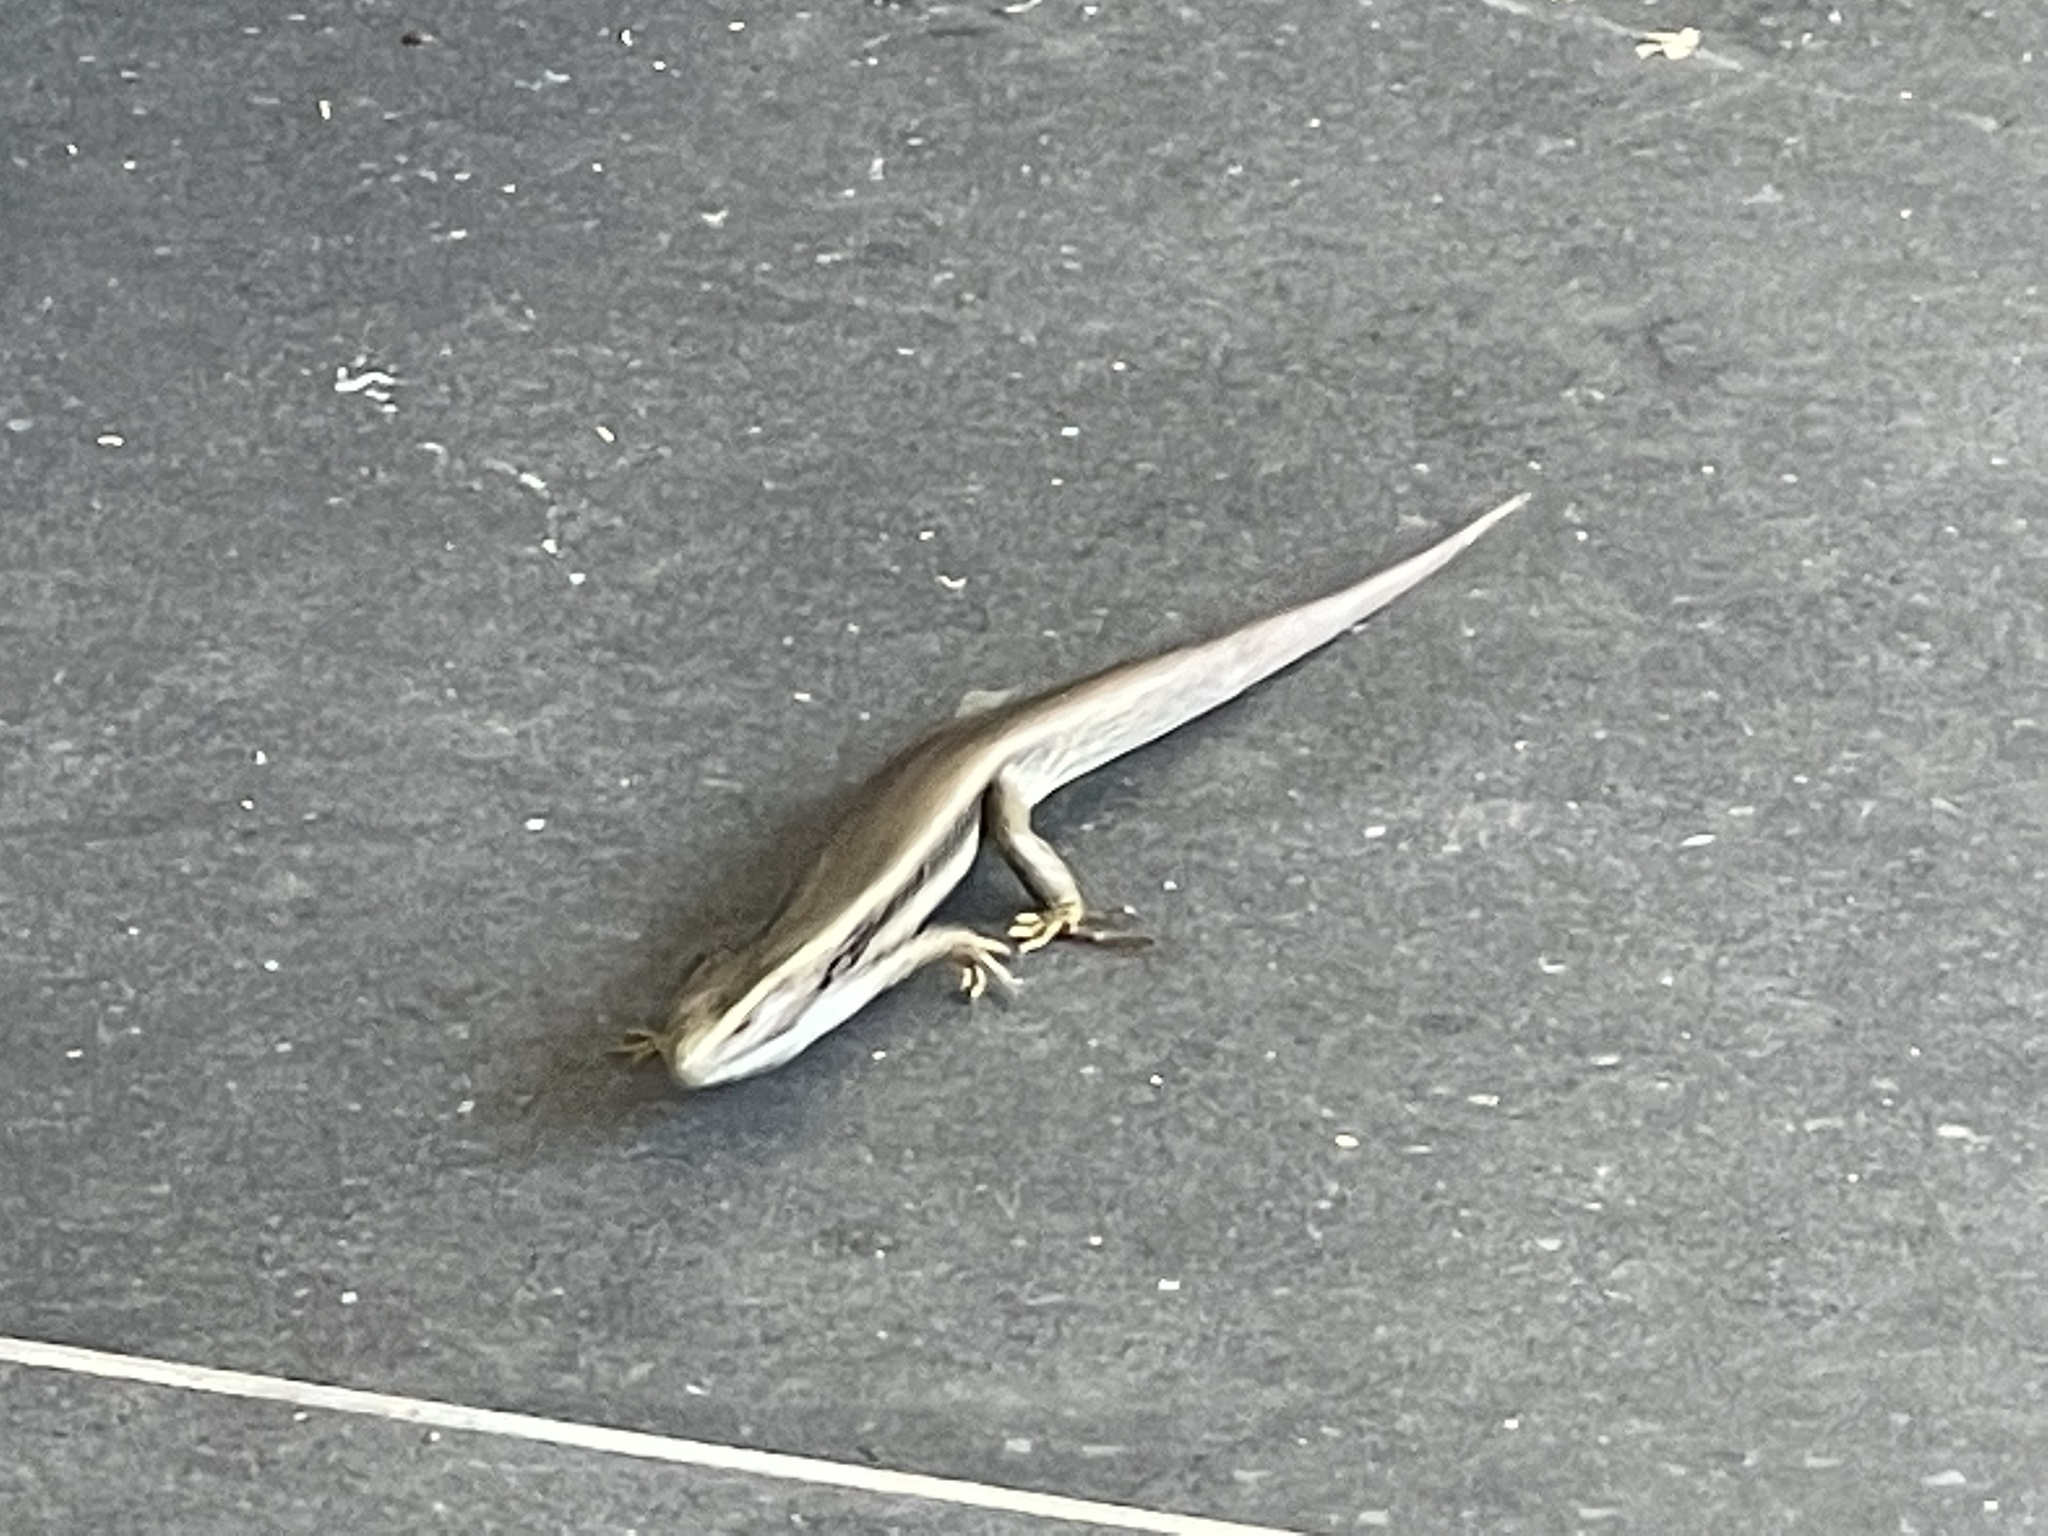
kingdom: Animalia
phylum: Chordata
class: Squamata
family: Scincidae
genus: Eulamprus
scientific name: Eulamprus quoyii
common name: Eastern water skink
